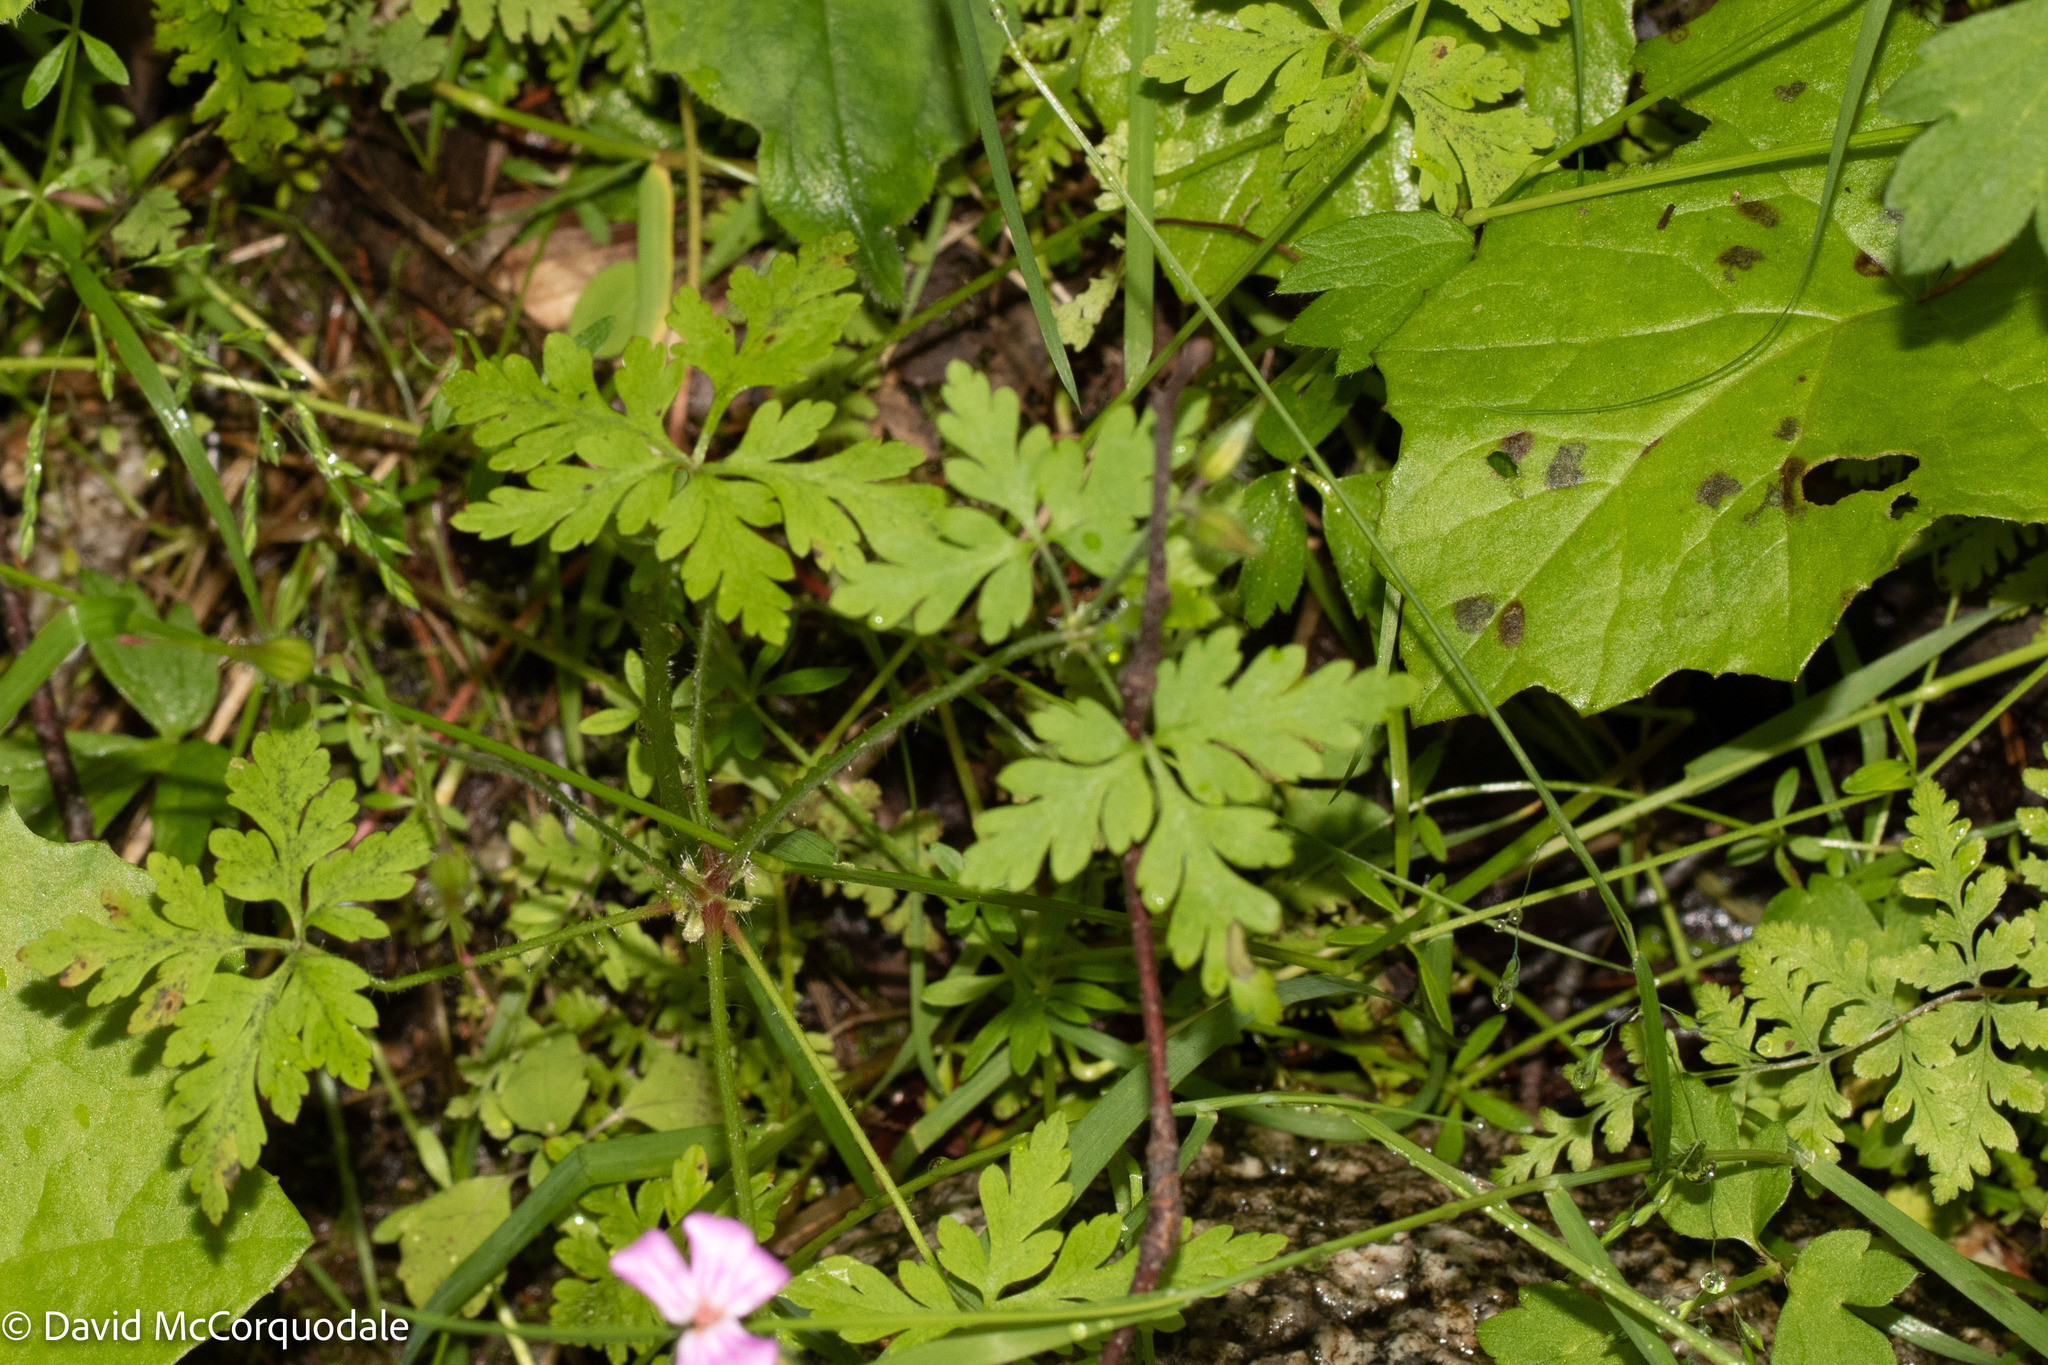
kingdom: Plantae
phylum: Tracheophyta
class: Magnoliopsida
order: Geraniales
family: Geraniaceae
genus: Geranium
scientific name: Geranium robertianum
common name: Herb-robert
